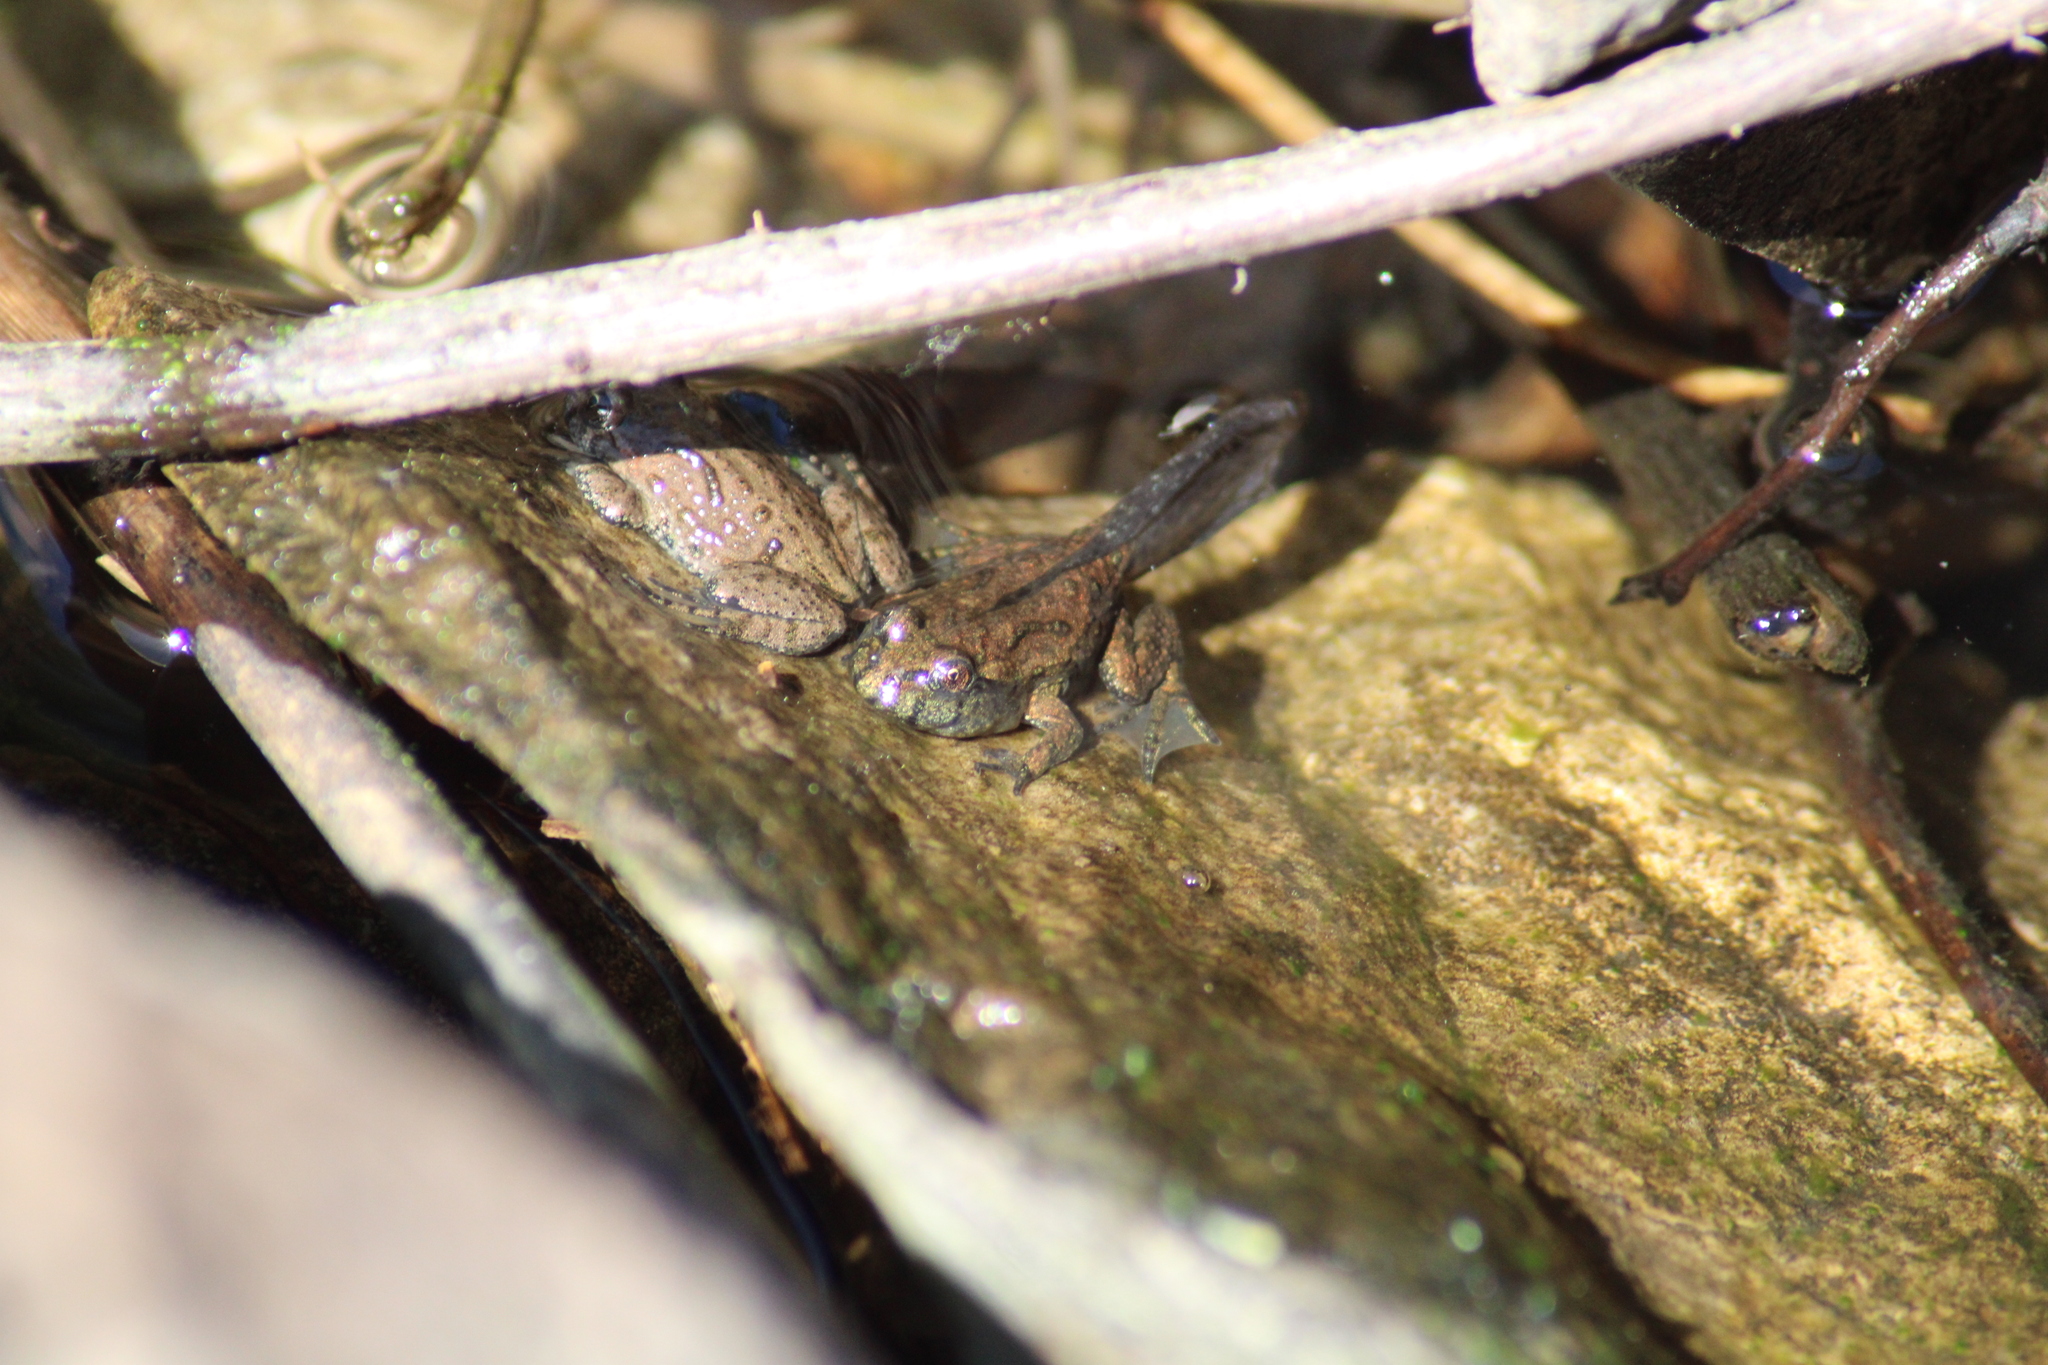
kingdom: Animalia
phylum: Chordata
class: Amphibia
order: Anura
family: Bombinatoridae
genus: Bombina
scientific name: Bombina bombina
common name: Fire-bellied toad
